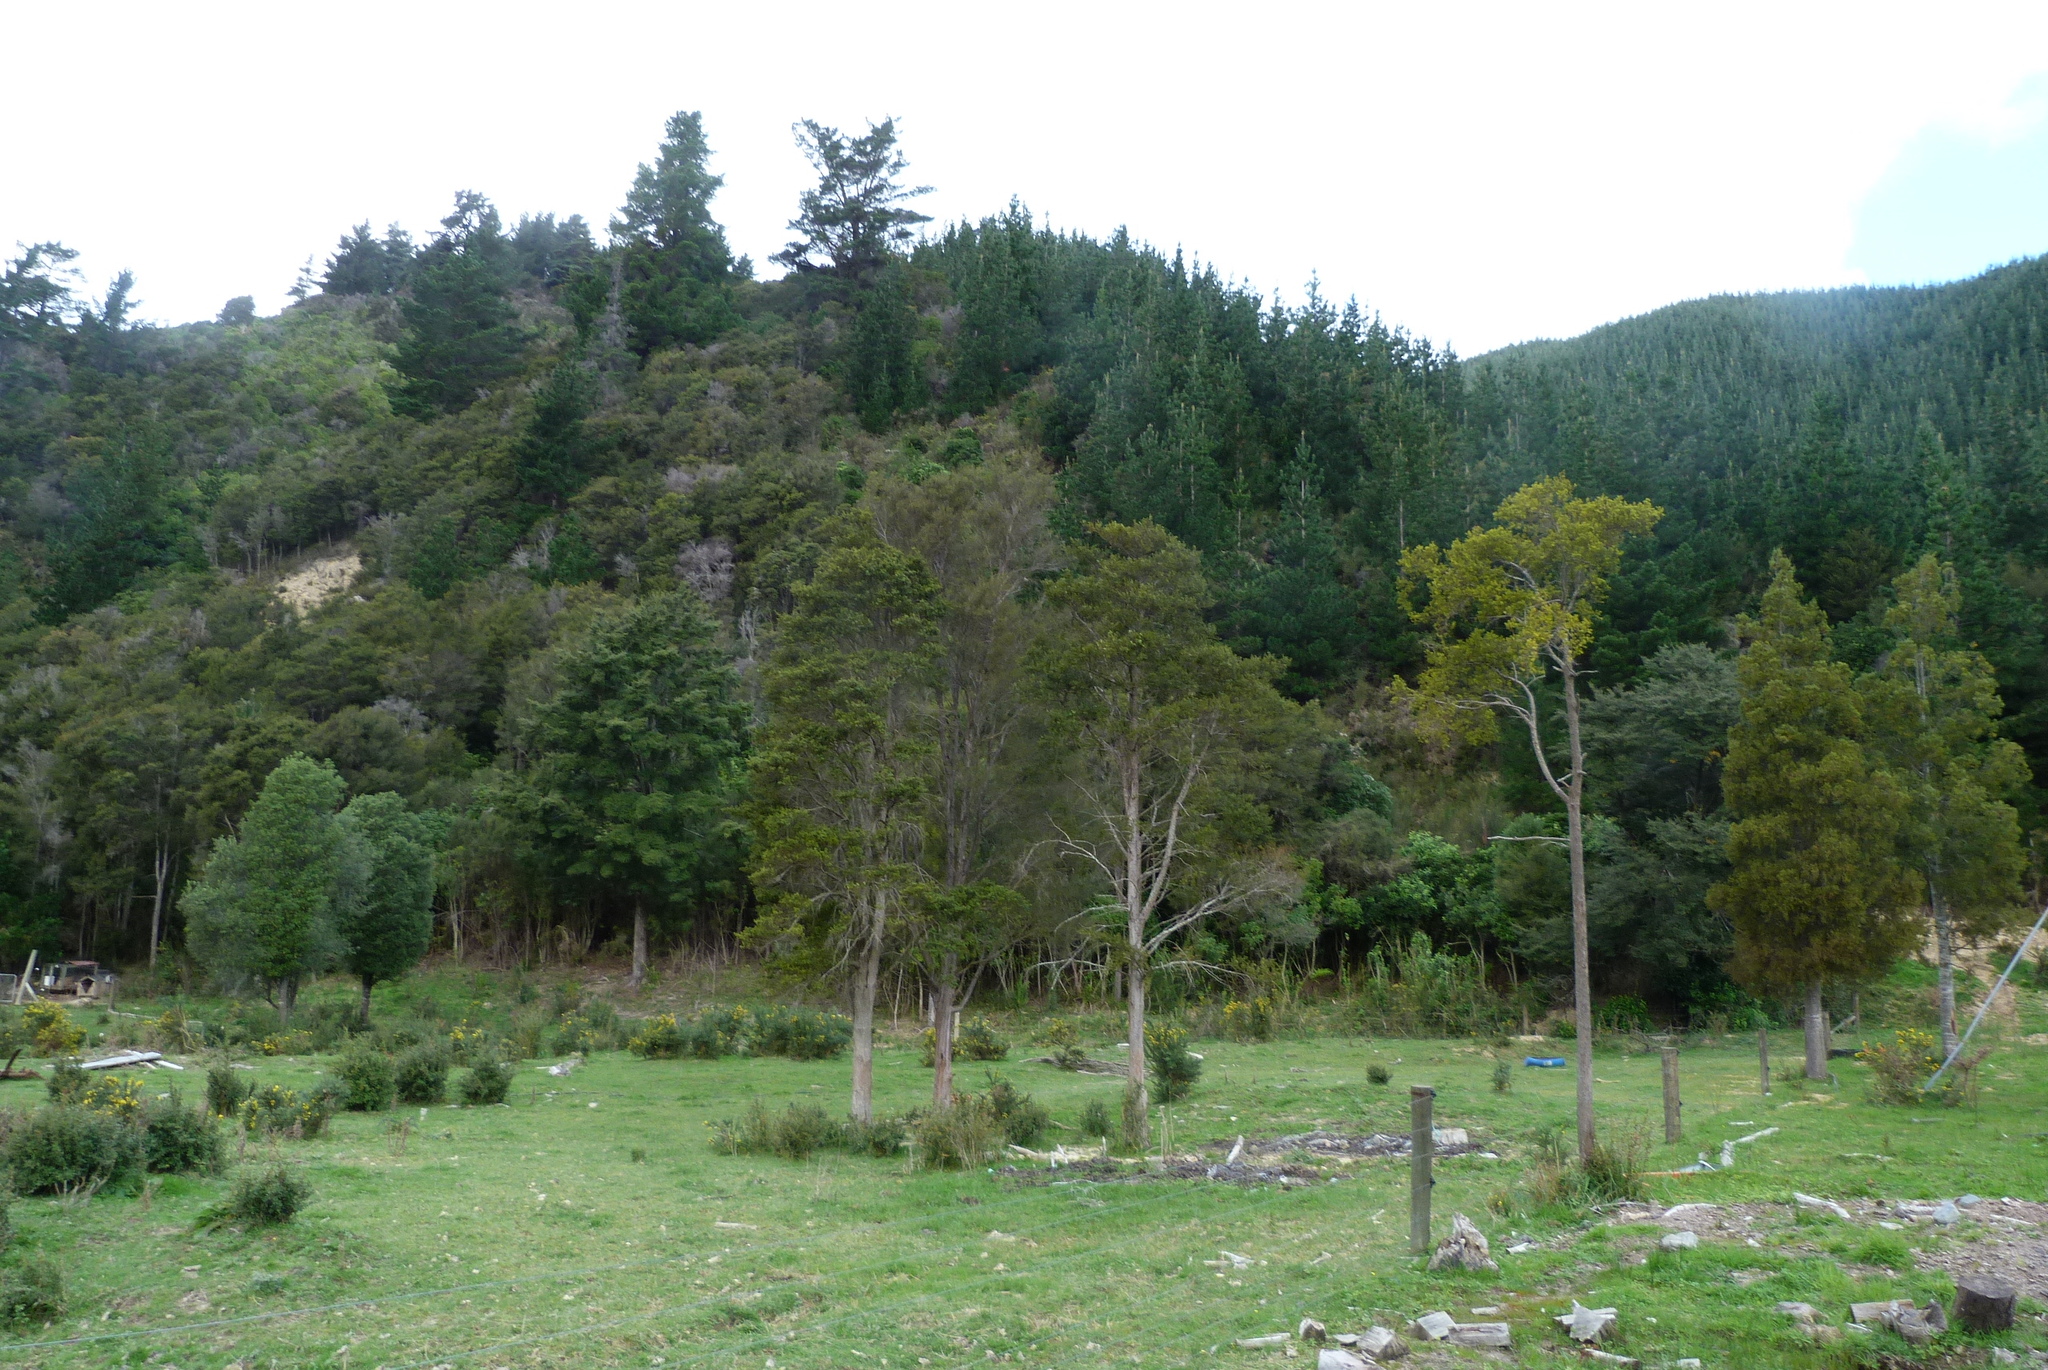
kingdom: Plantae
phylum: Tracheophyta
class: Pinopsida
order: Pinales
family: Podocarpaceae
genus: Podocarpus
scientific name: Podocarpus totara
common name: Totara
